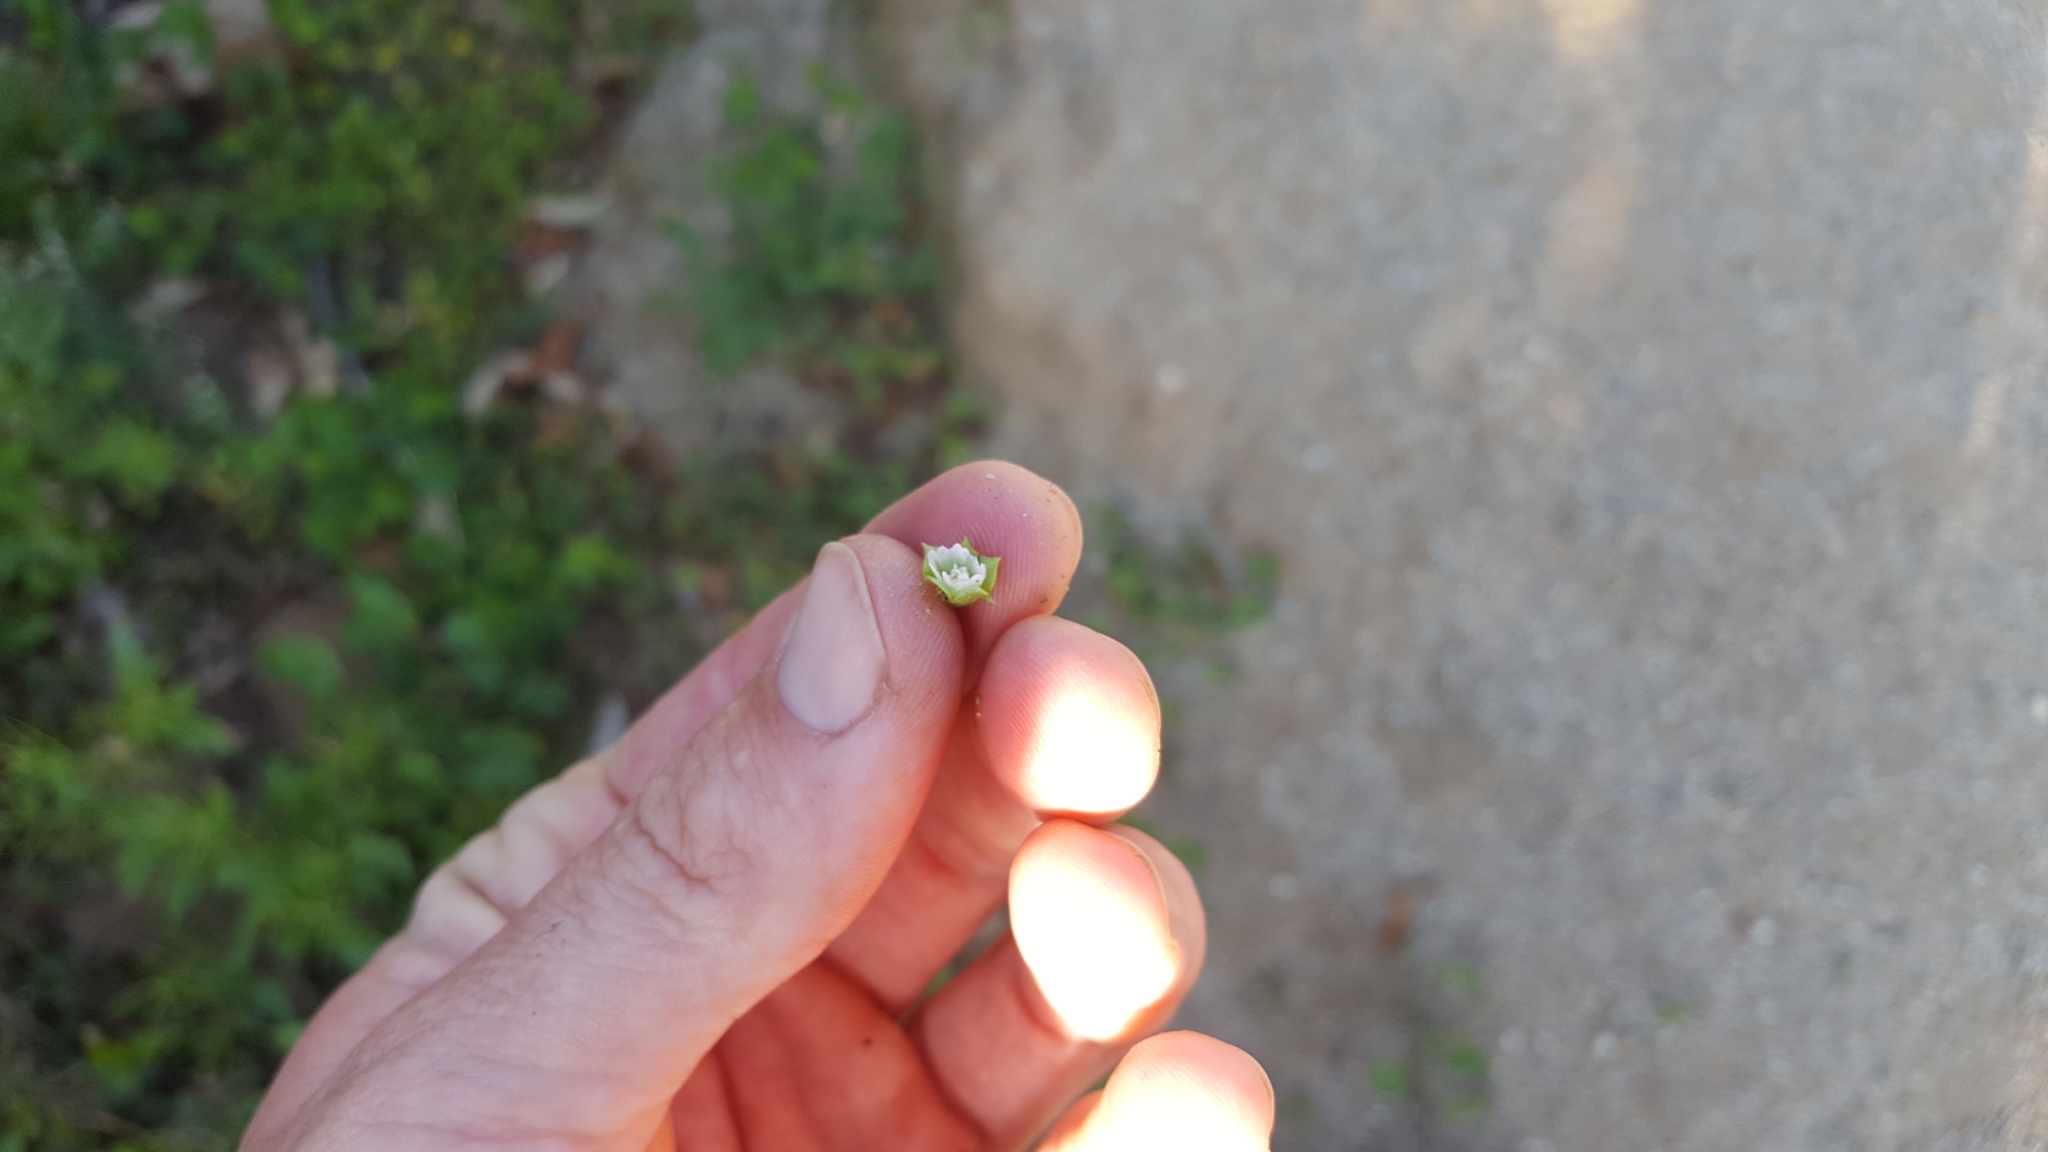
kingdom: Plantae
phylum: Tracheophyta
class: Magnoliopsida
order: Malvales
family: Malvaceae
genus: Malva
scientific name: Malva parviflora
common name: Least mallow
